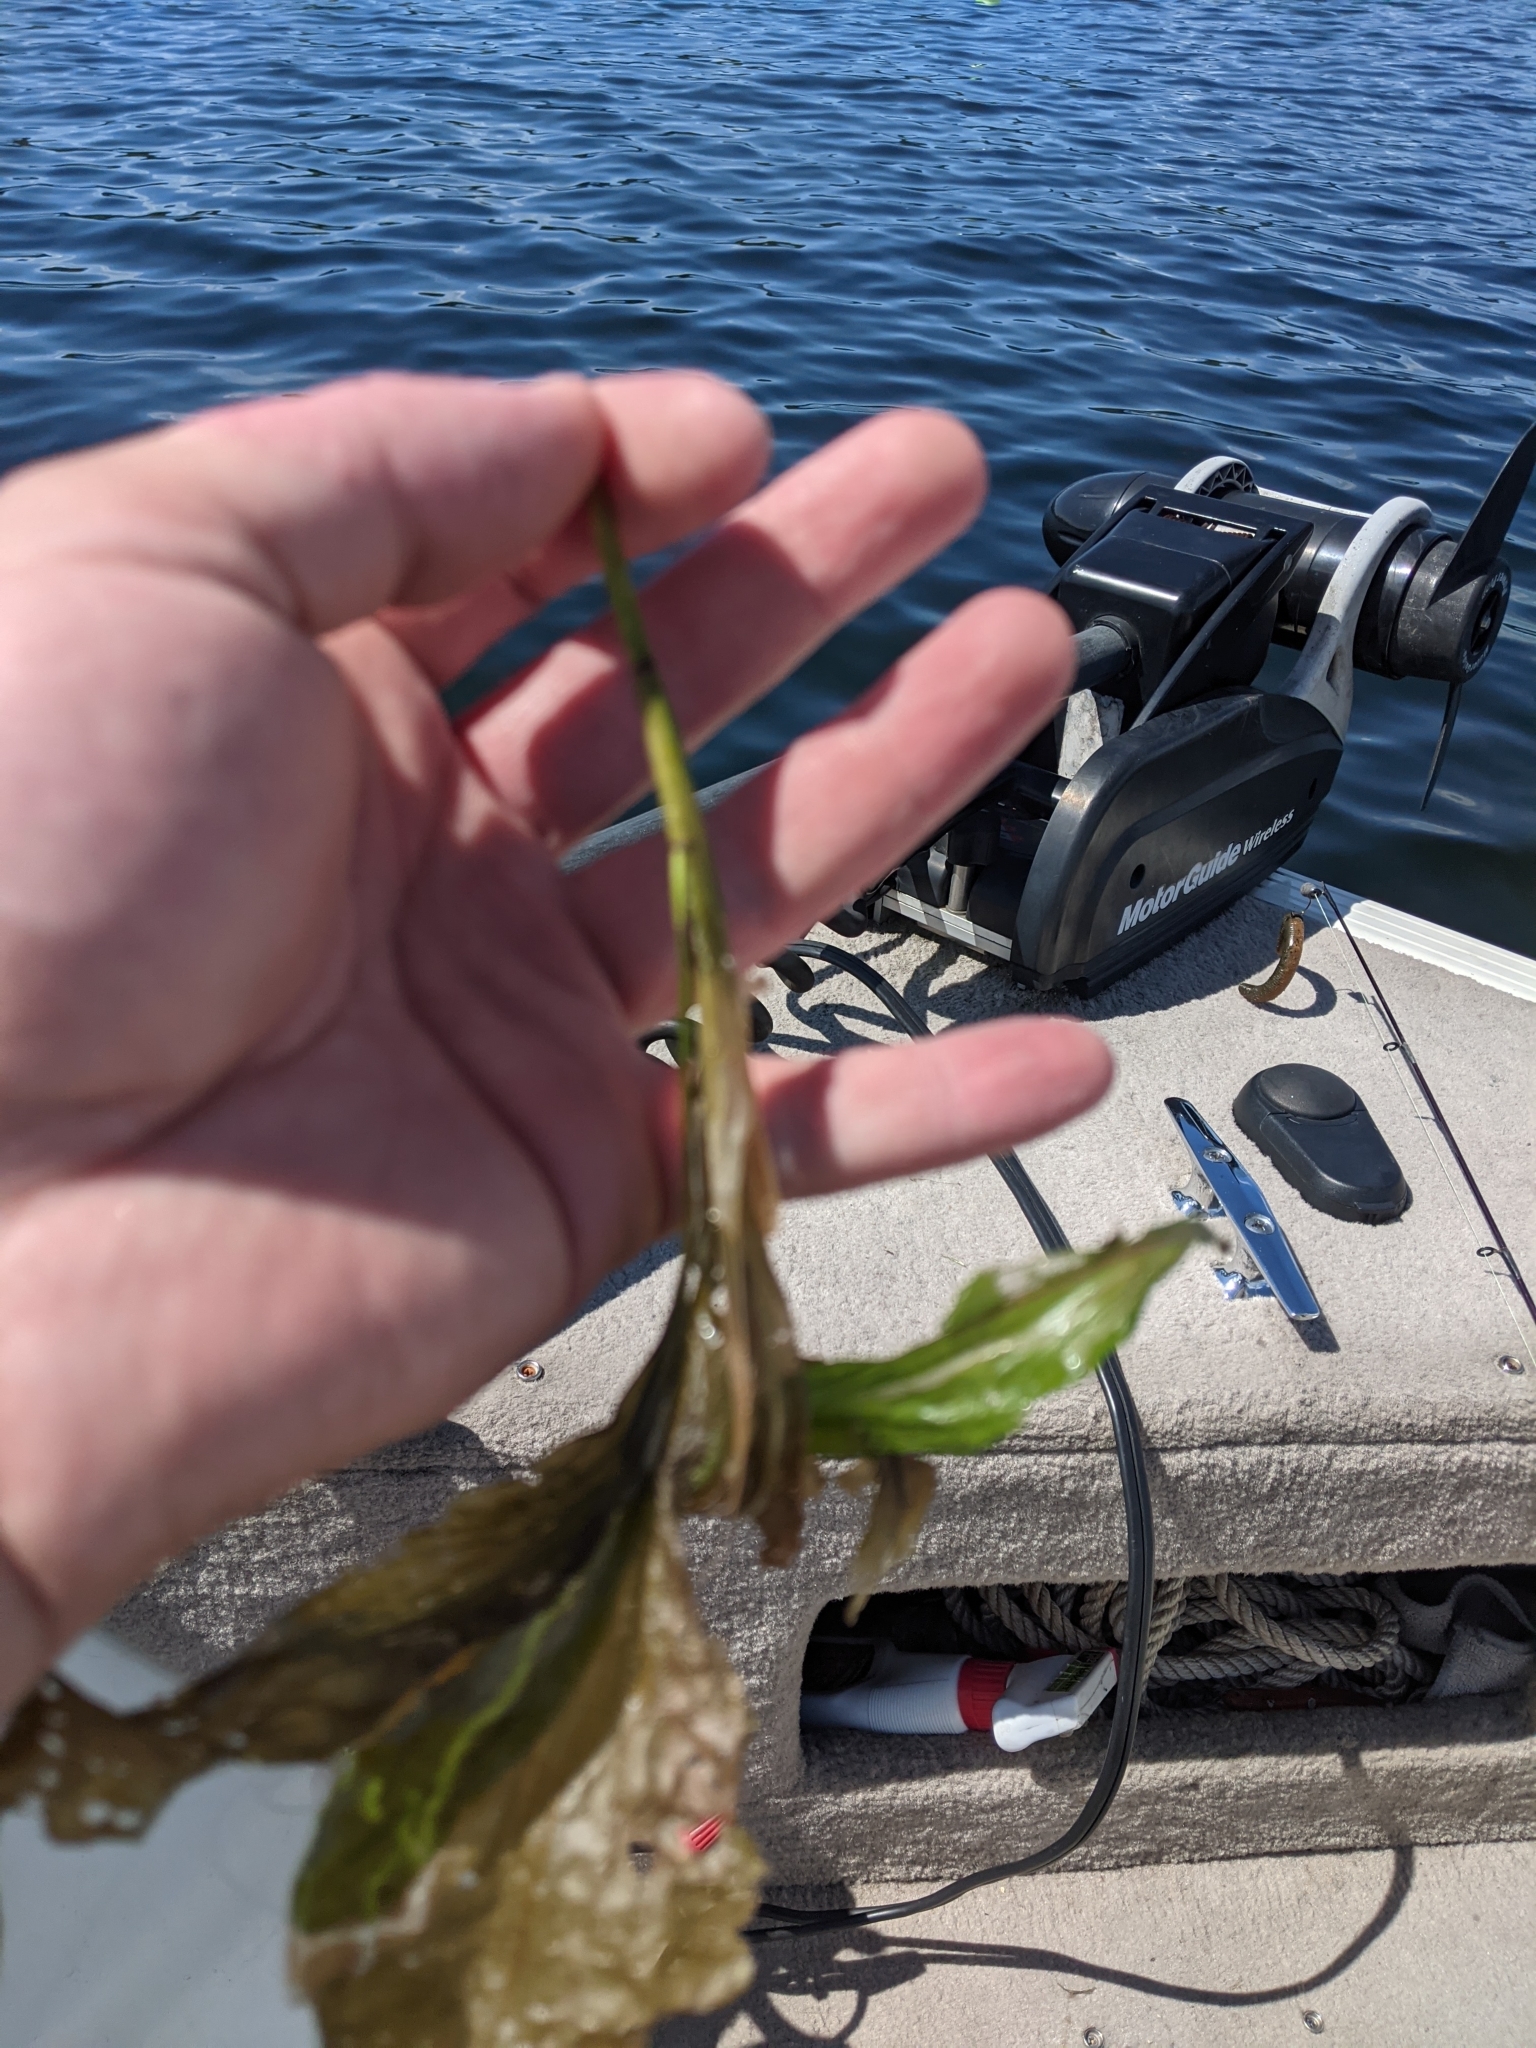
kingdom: Plantae
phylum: Tracheophyta
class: Liliopsida
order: Alismatales
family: Potamogetonaceae
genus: Potamogeton
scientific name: Potamogeton amplifolius
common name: Broad-leaved pondweed
